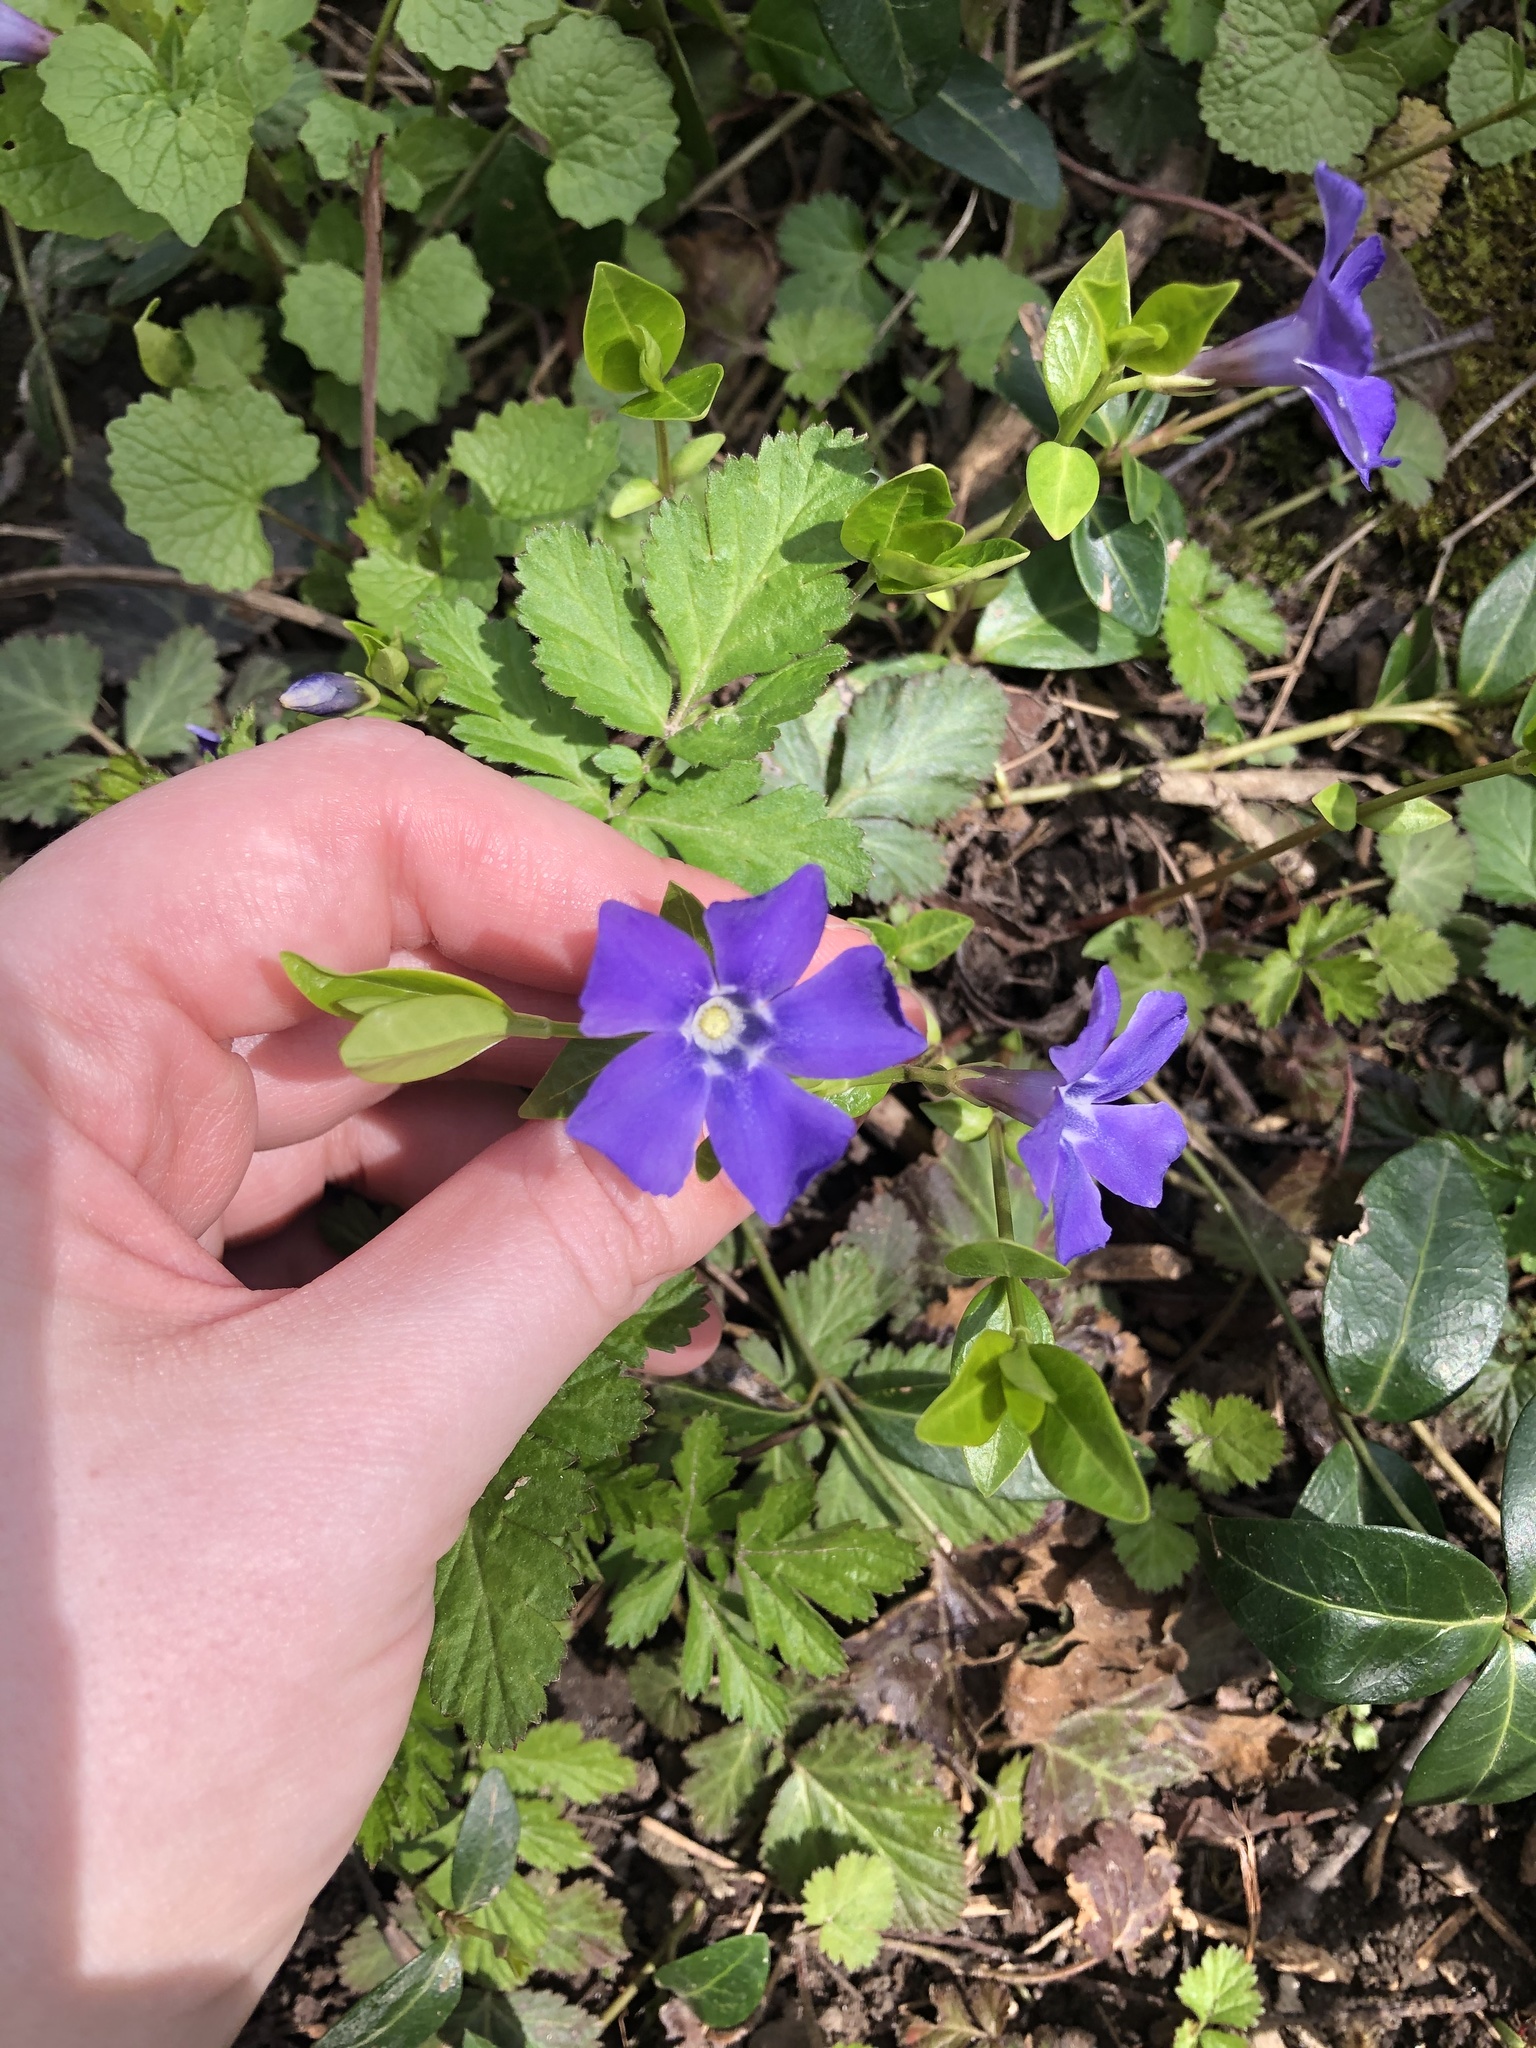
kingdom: Plantae
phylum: Tracheophyta
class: Magnoliopsida
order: Gentianales
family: Apocynaceae
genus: Vinca
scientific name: Vinca minor
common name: Lesser periwinkle
